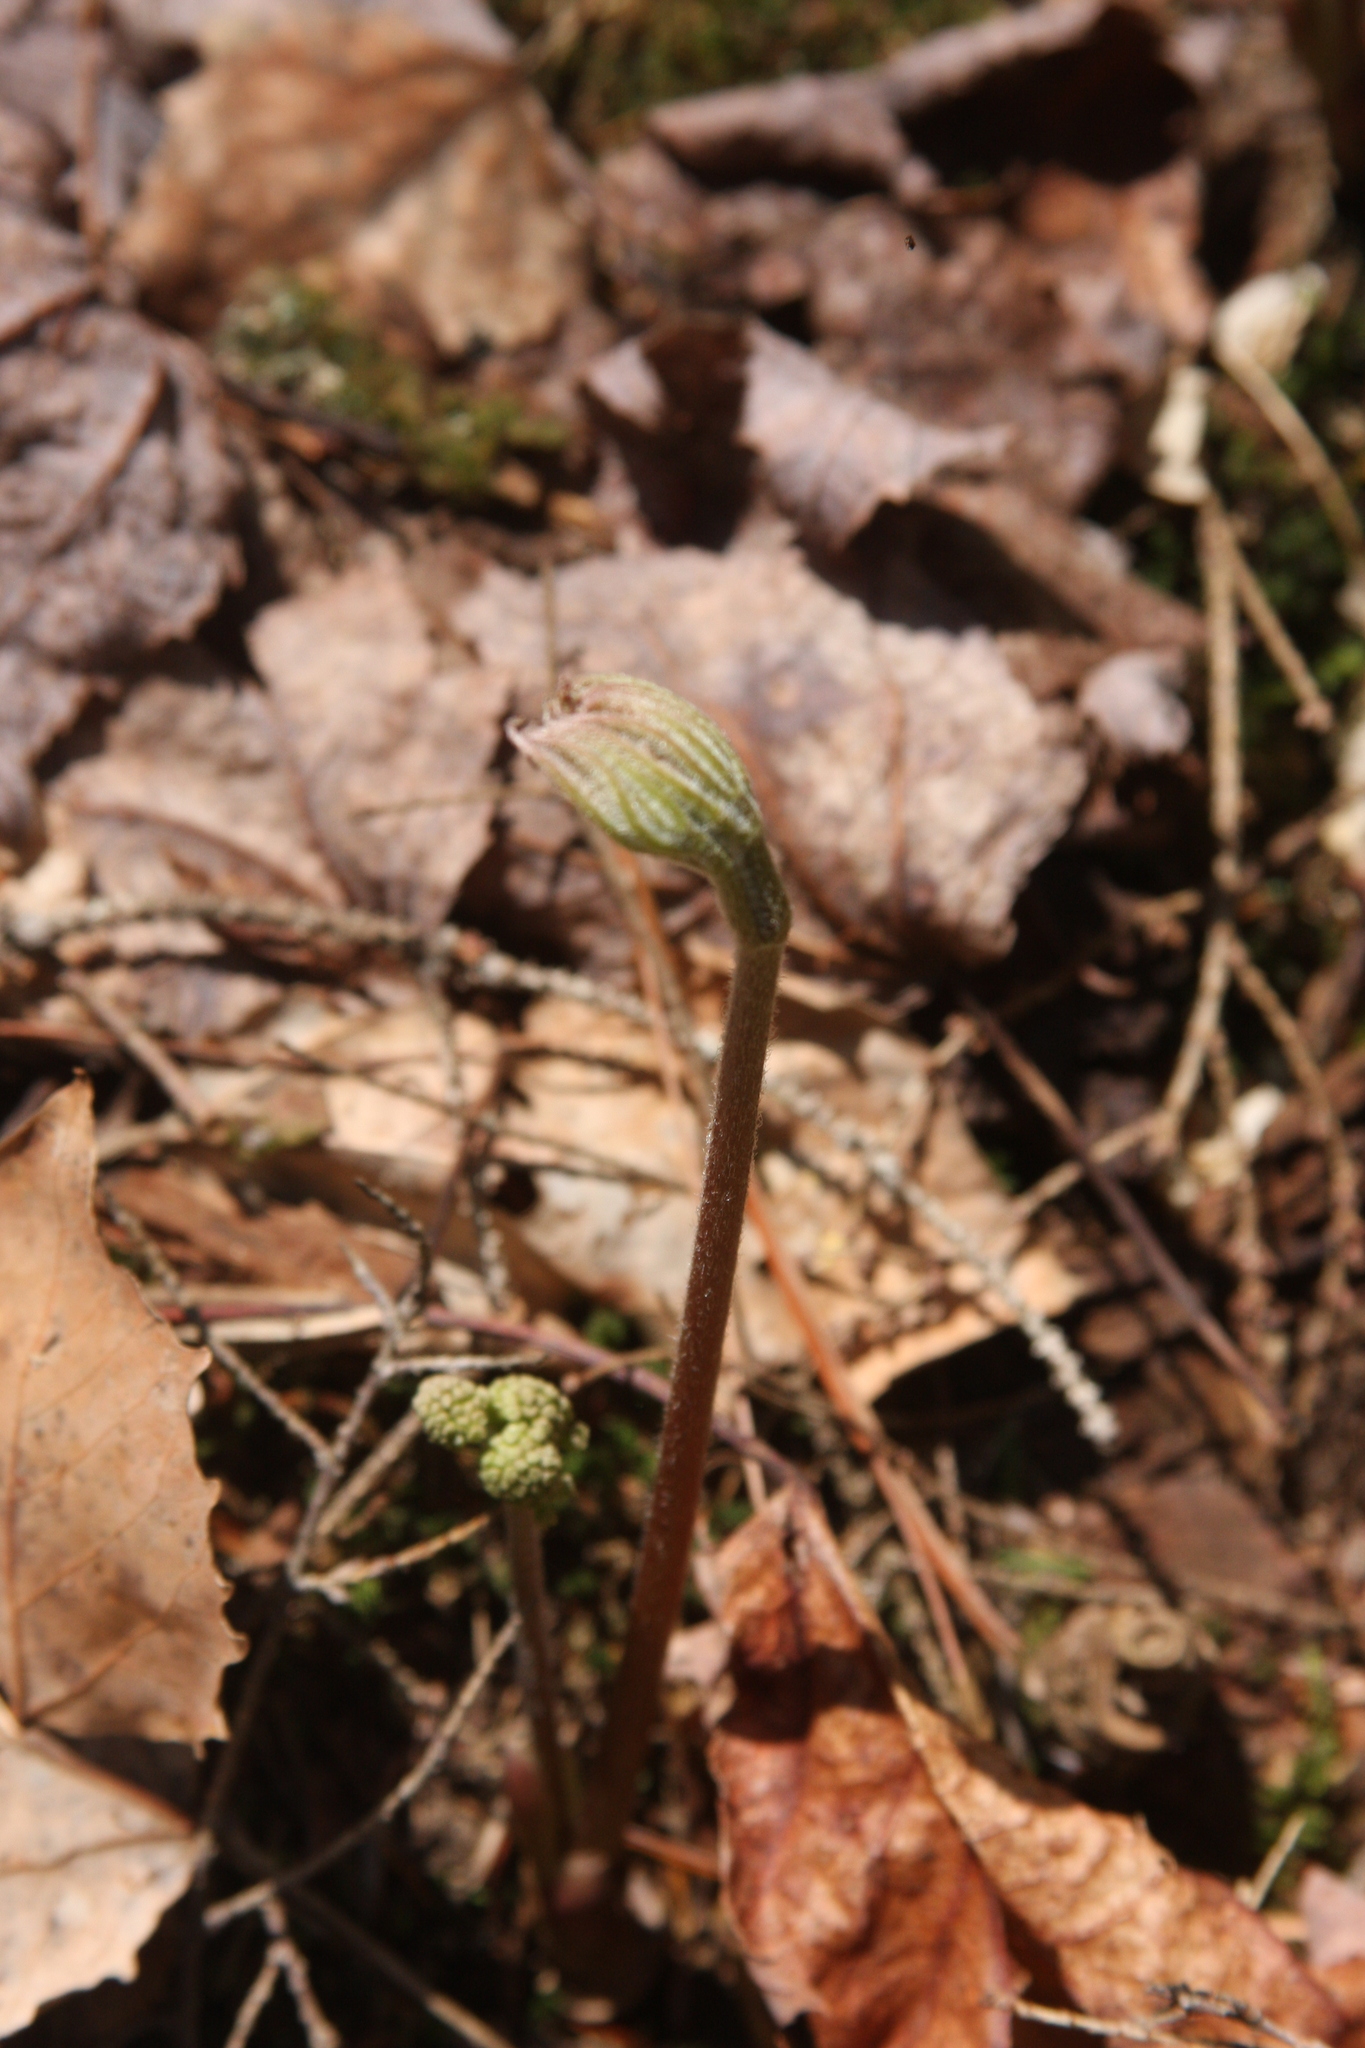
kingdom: Plantae
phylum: Tracheophyta
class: Magnoliopsida
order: Apiales
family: Araliaceae
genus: Aralia
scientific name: Aralia nudicaulis
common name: Wild sarsaparilla
